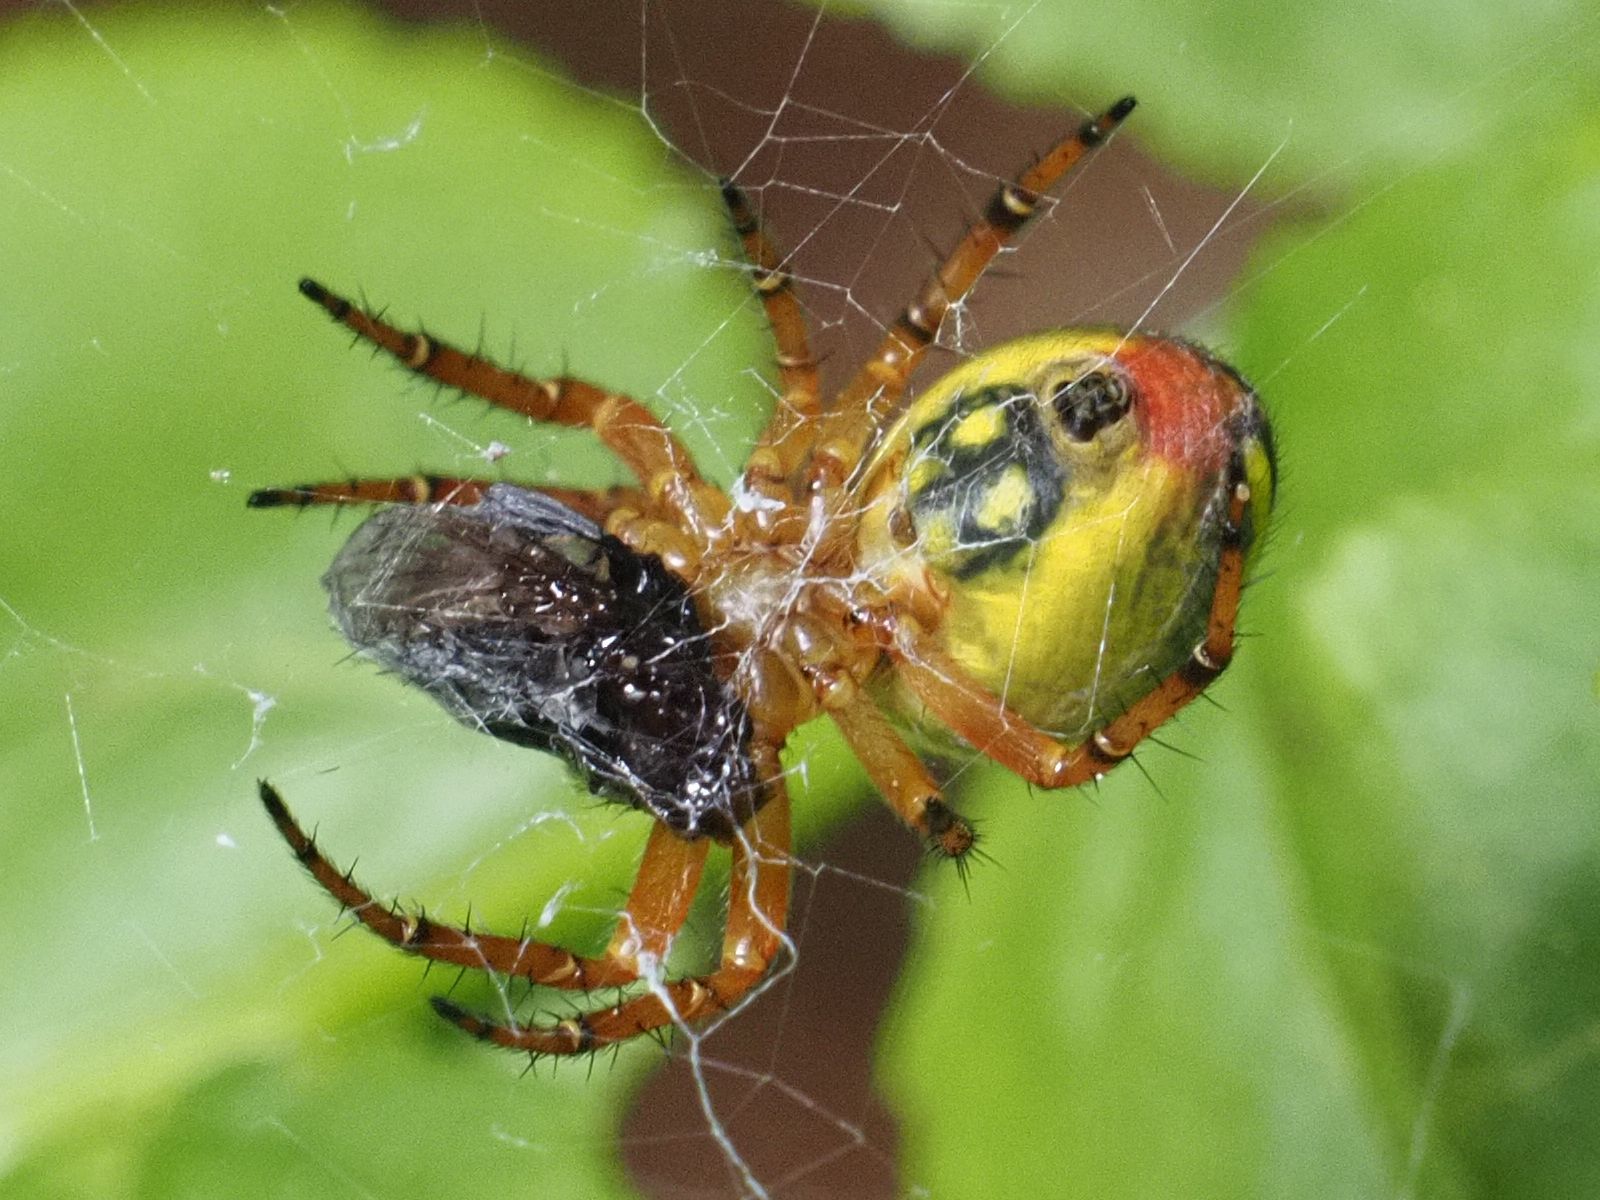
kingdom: Animalia
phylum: Arthropoda
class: Arachnida
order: Araneae
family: Araneidae
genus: Araniella
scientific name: Araniella alpica
